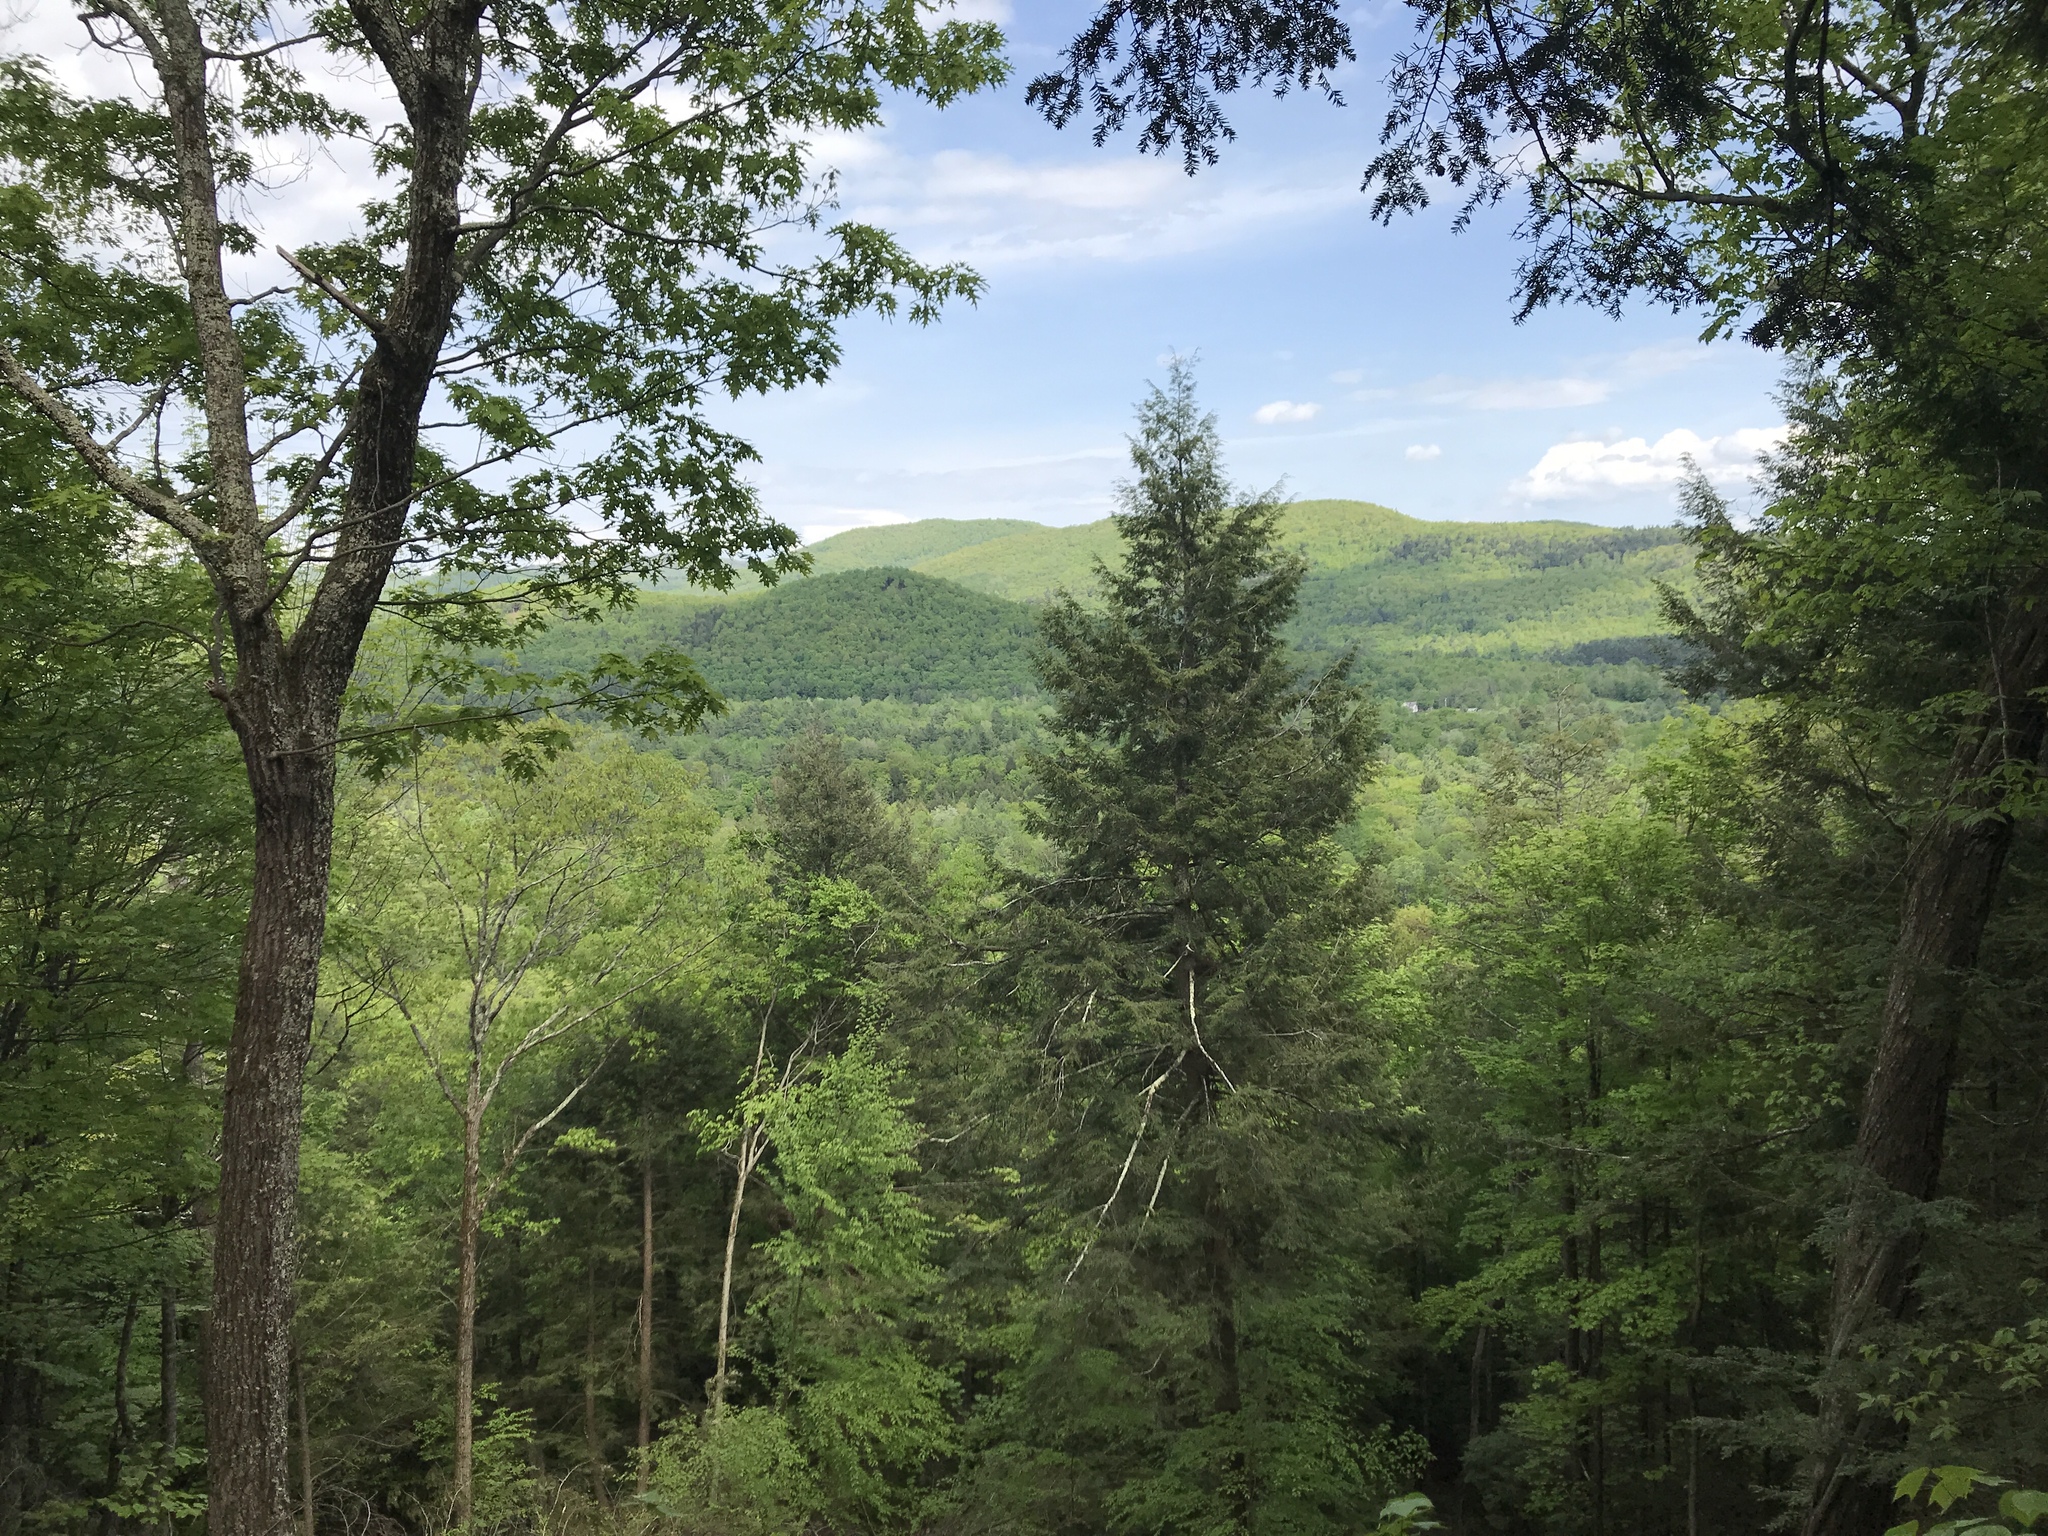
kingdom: Plantae
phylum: Tracheophyta
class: Pinopsida
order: Pinales
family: Pinaceae
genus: Tsuga
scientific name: Tsuga canadensis
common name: Eastern hemlock
